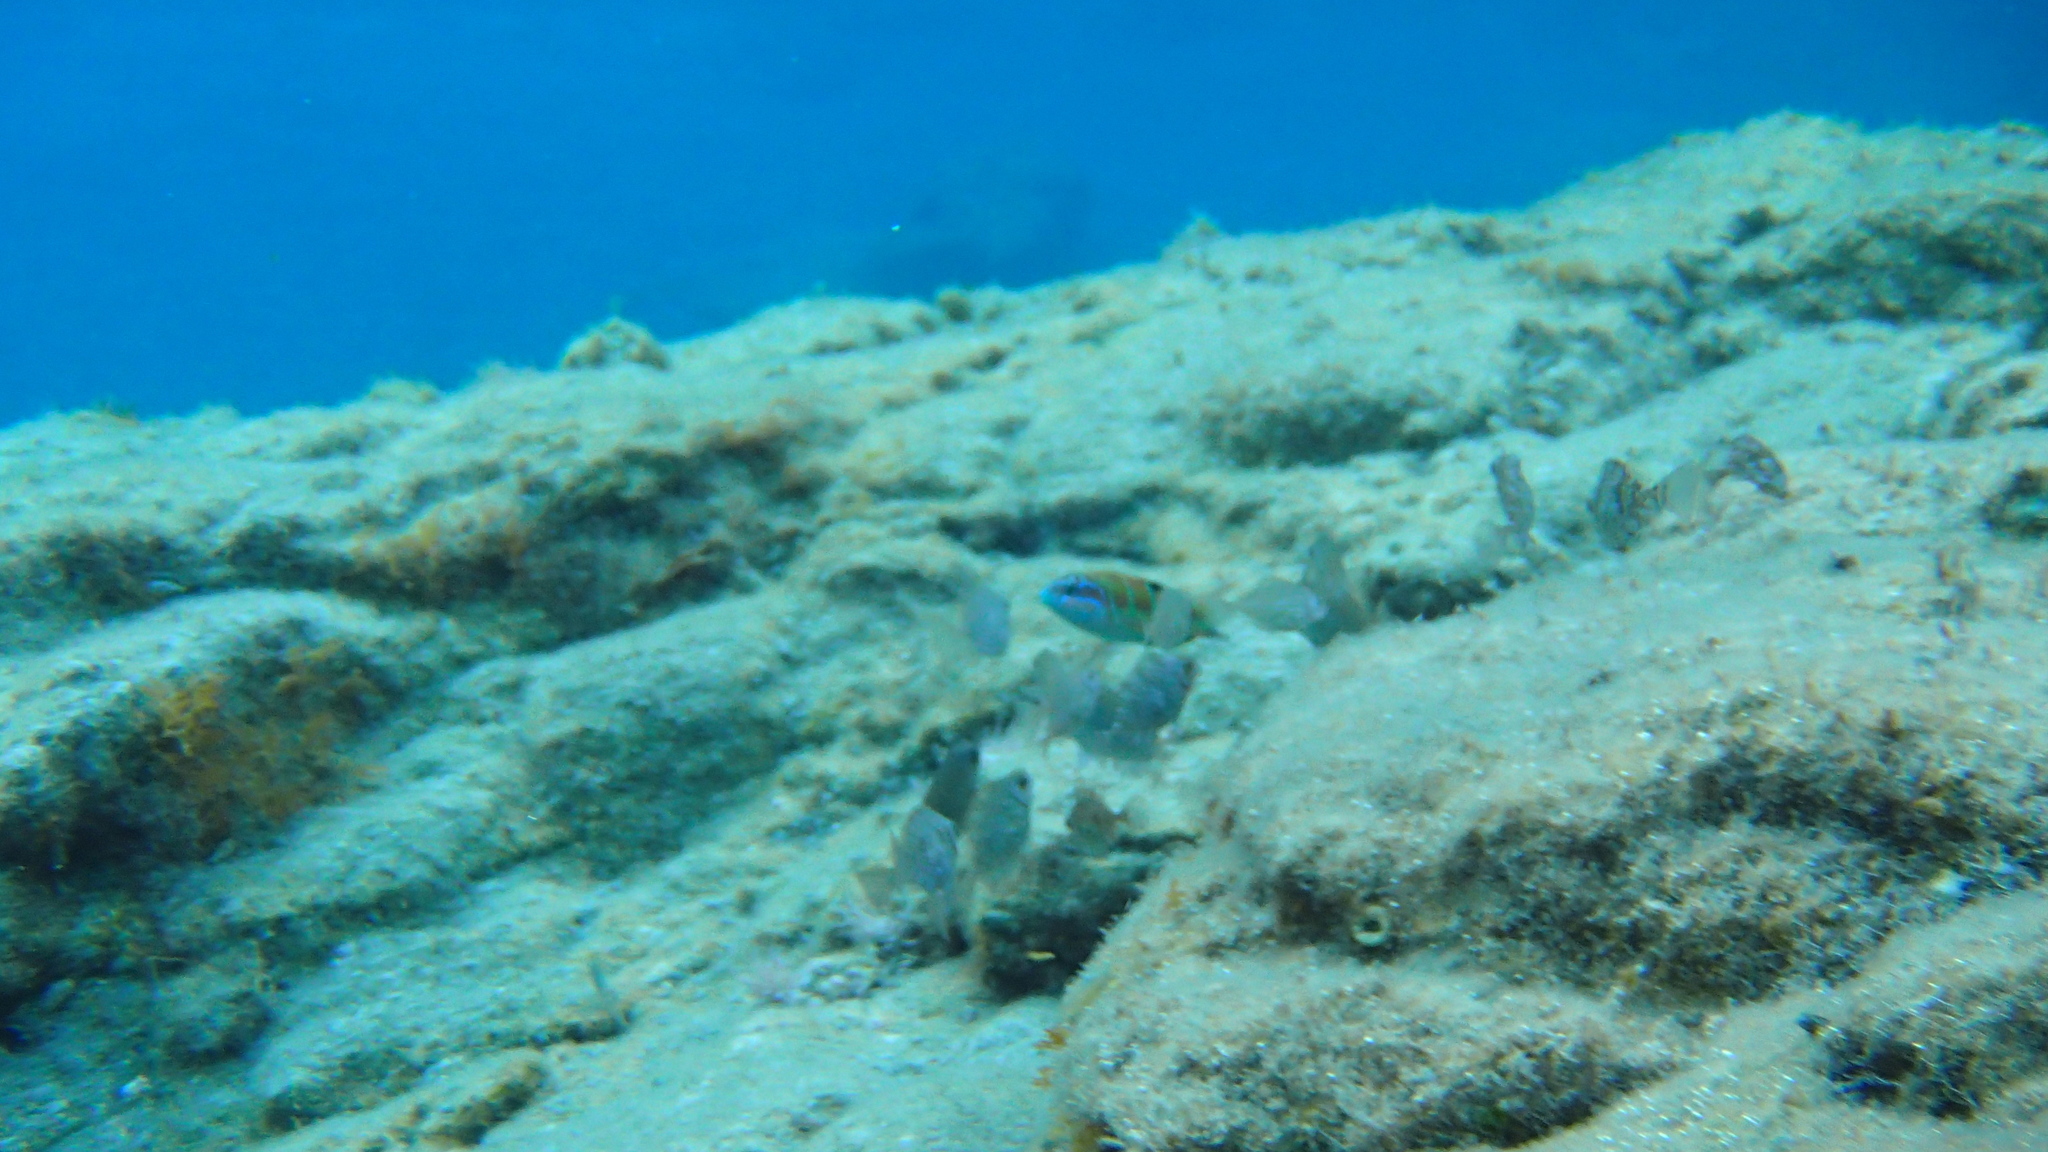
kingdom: Animalia
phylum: Chordata
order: Perciformes
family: Labridae
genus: Thalassoma
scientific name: Thalassoma pavo
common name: Ornate wrasse
